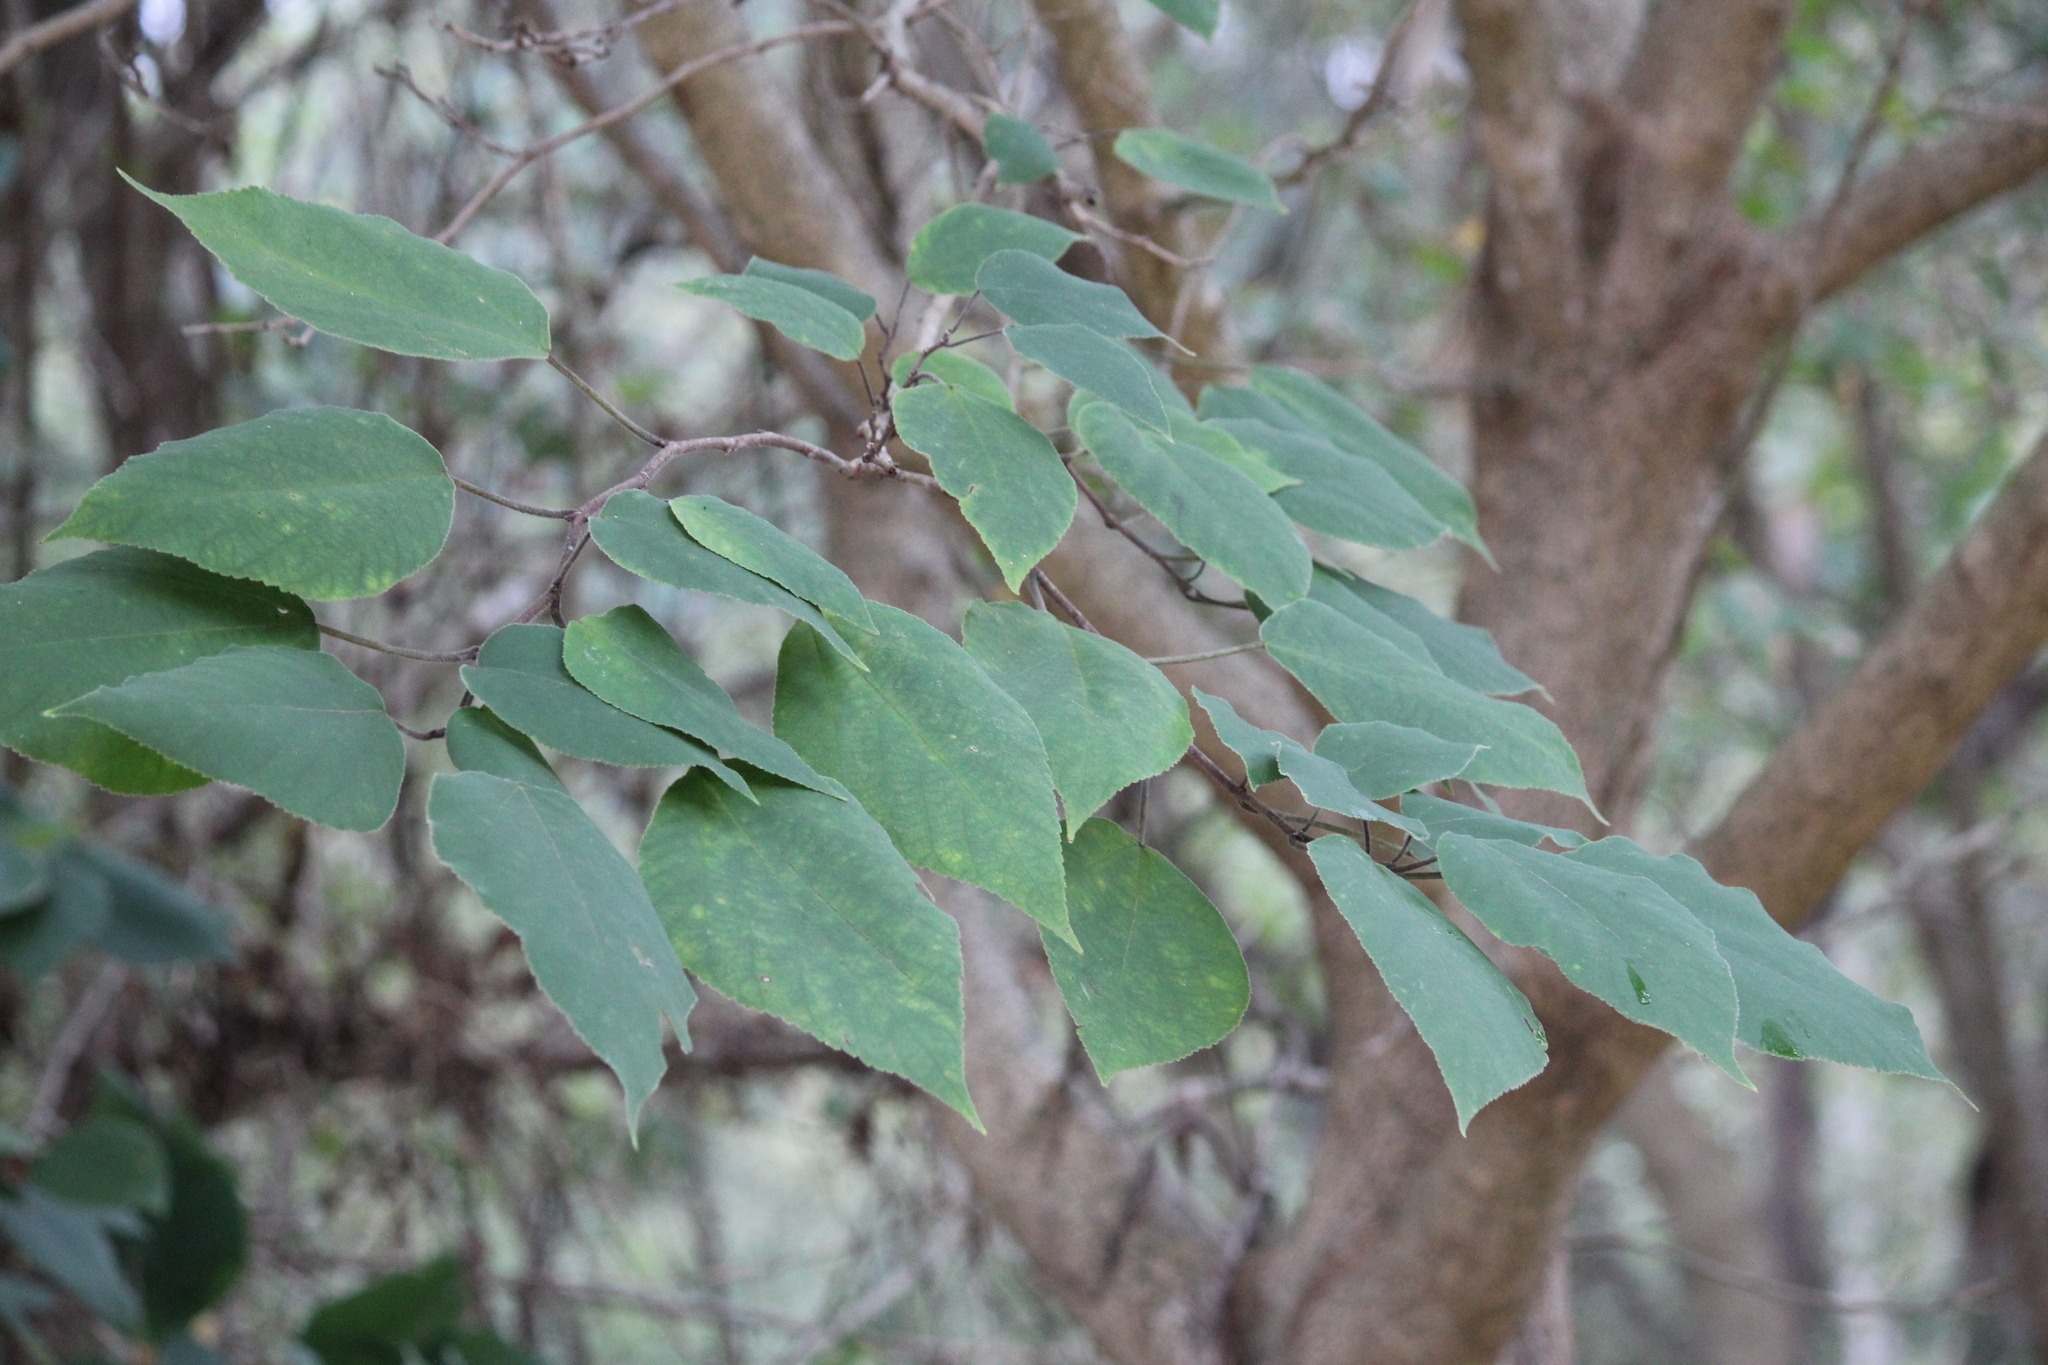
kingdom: Plantae
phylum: Tracheophyta
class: Magnoliopsida
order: Rosales
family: Moraceae
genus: Broussonetia
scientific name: Broussonetia papyrifera
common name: Paper mulberry
